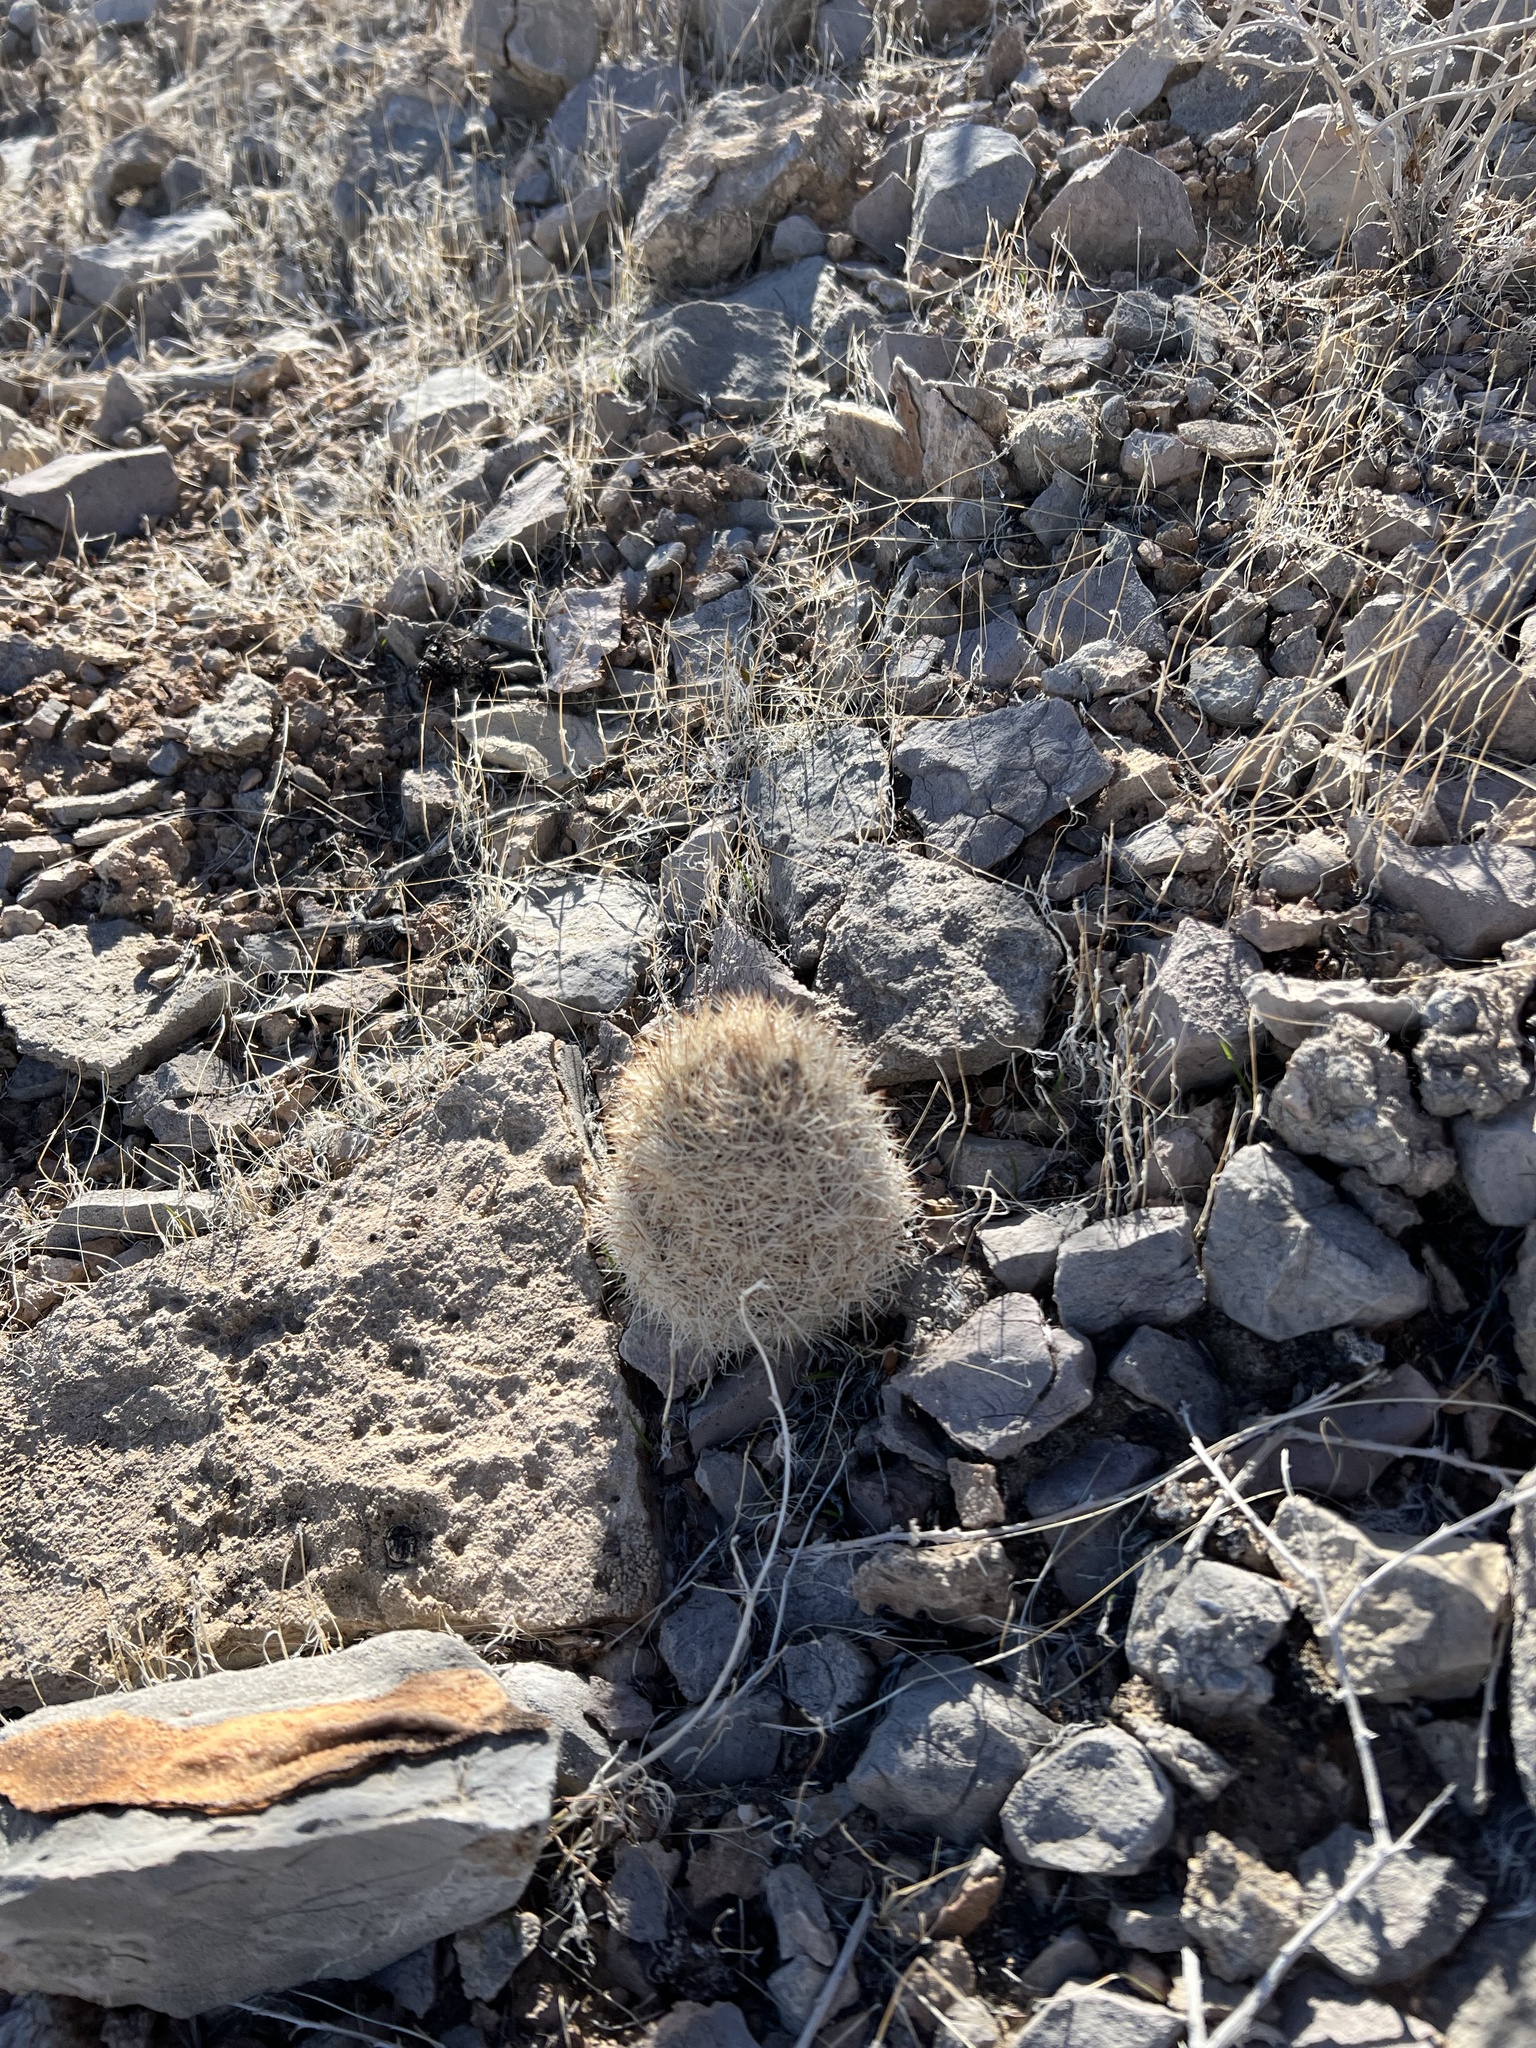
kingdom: Plantae
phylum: Tracheophyta
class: Magnoliopsida
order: Caryophyllales
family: Cactaceae
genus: Pelecyphora
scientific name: Pelecyphora dasyacantha
